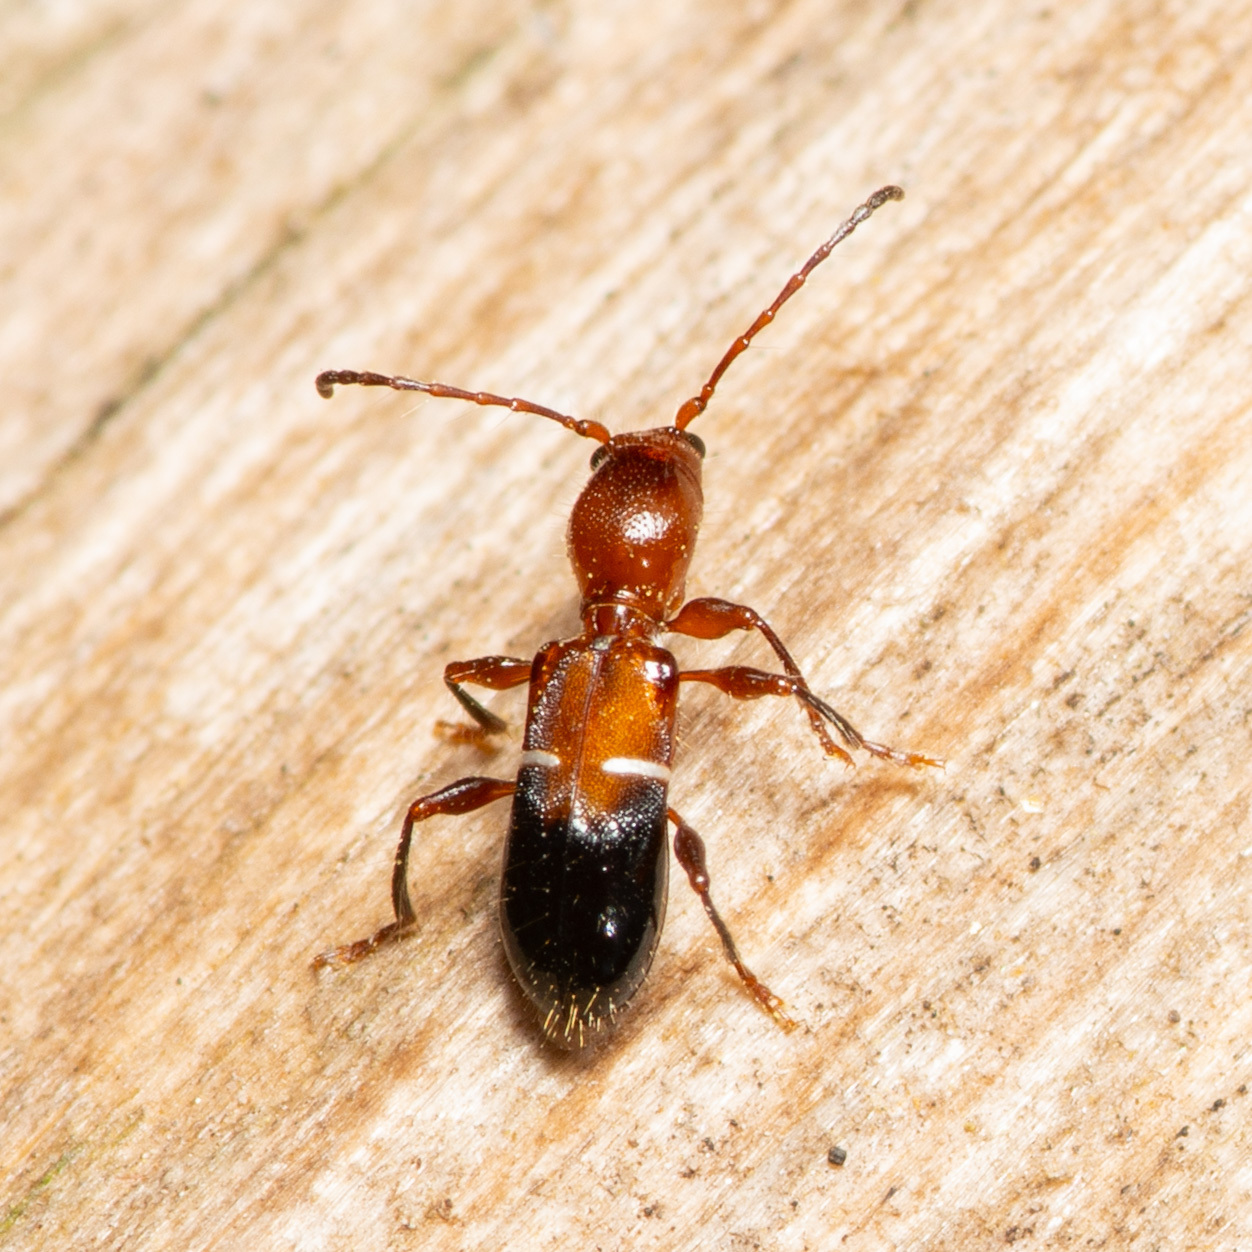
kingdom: Animalia
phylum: Arthropoda
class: Insecta
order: Coleoptera
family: Cerambycidae
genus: Euderces
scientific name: Euderces reichei
